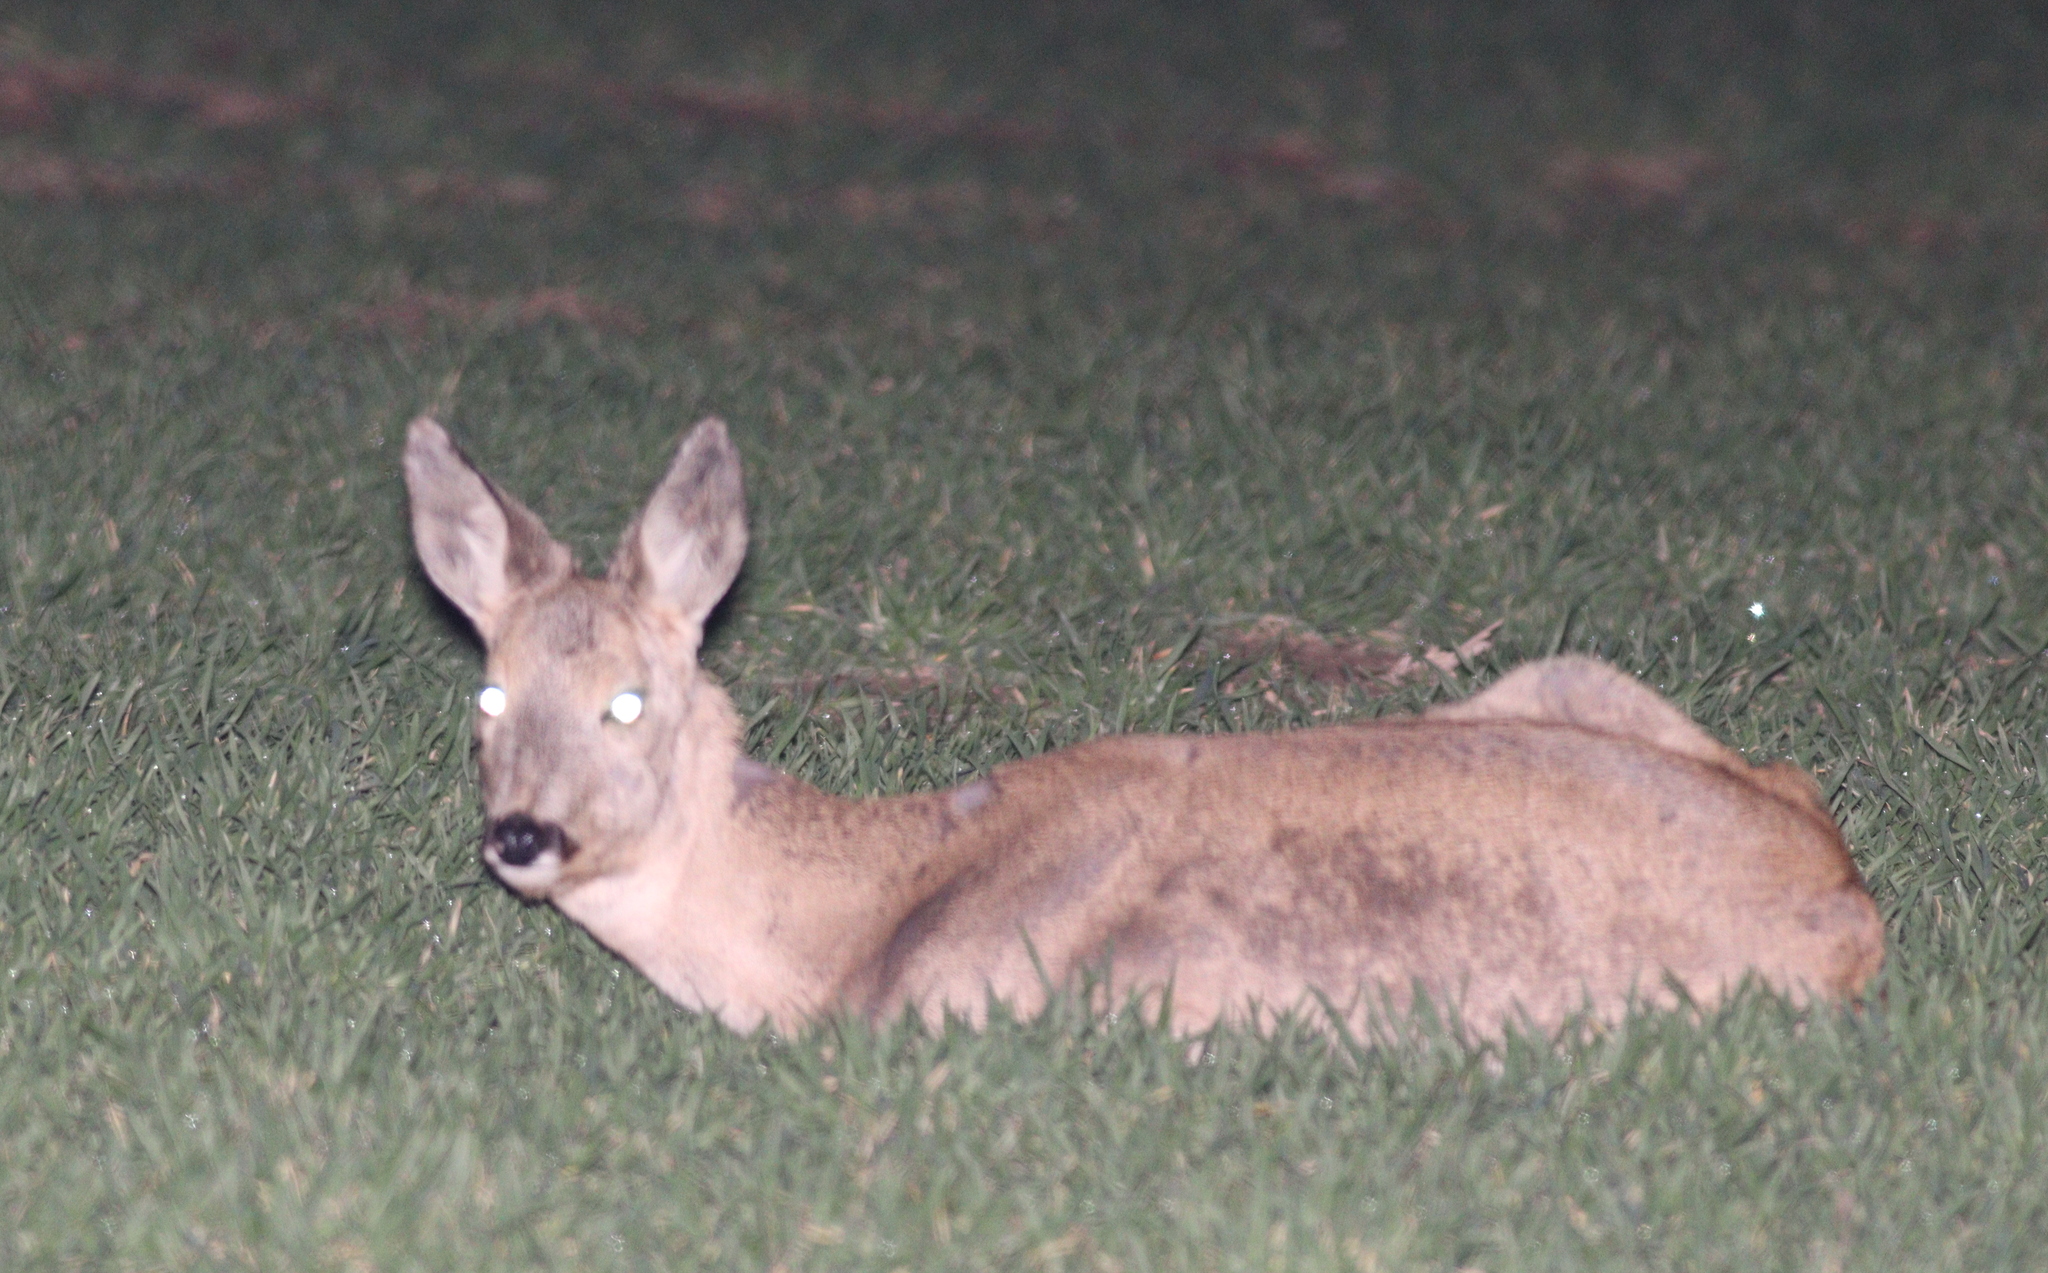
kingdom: Animalia
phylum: Chordata
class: Mammalia
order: Artiodactyla
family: Cervidae
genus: Capreolus
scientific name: Capreolus capreolus
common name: Western roe deer
